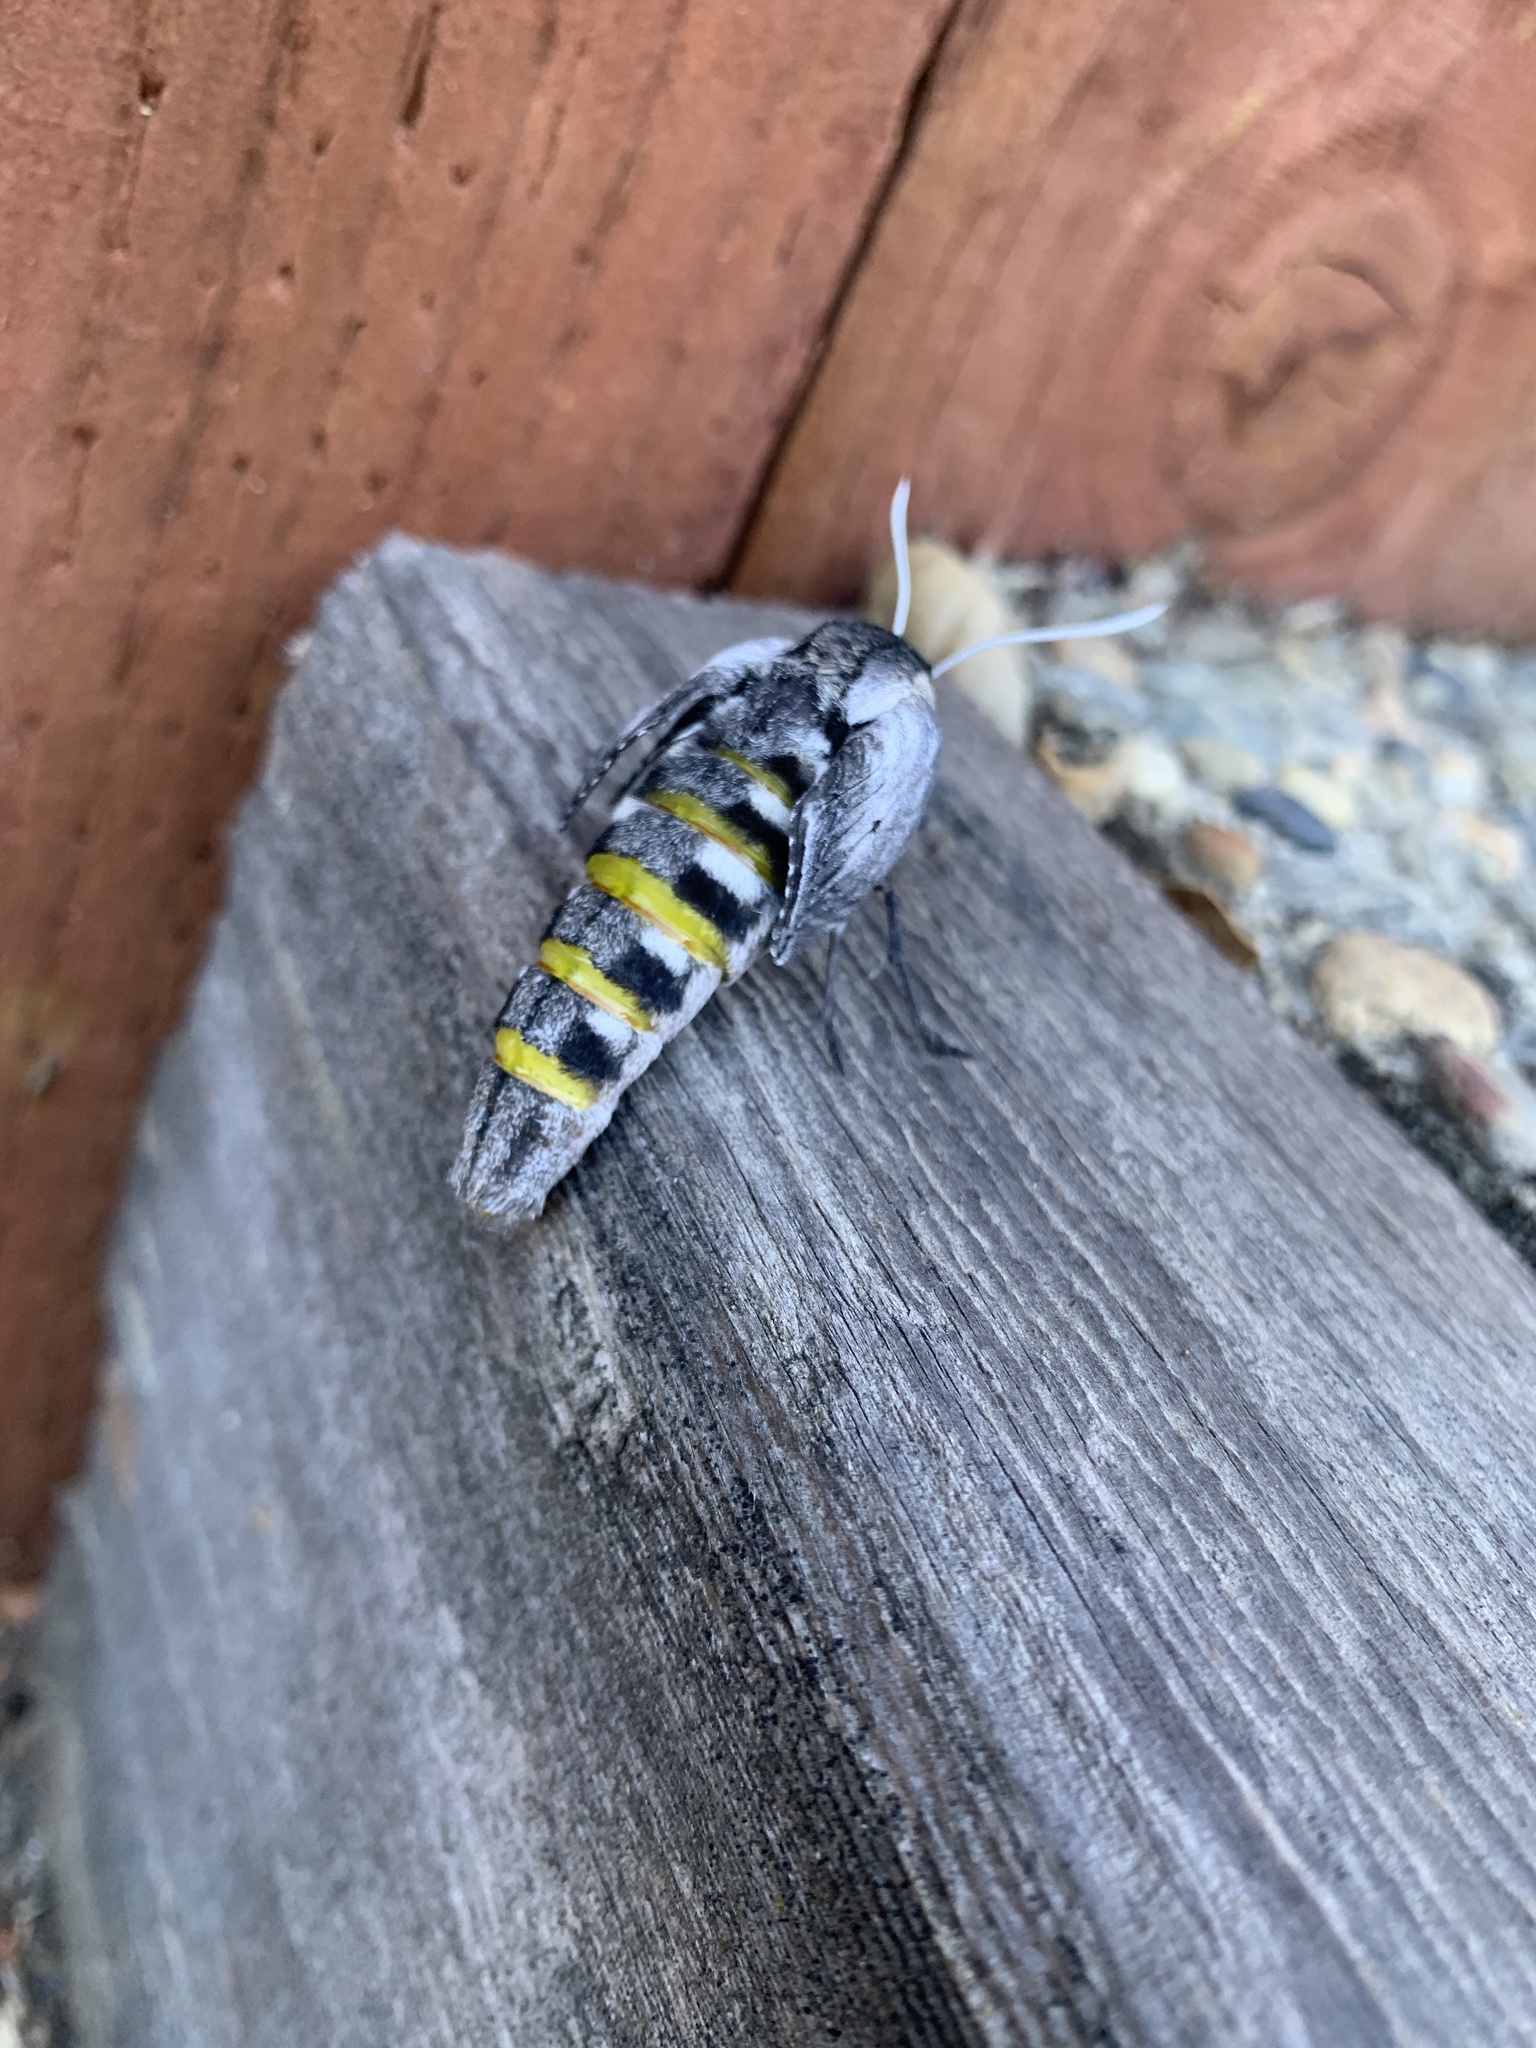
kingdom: Animalia
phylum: Arthropoda
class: Insecta
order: Lepidoptera
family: Sphingidae
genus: Sphinx
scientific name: Sphinx perelegans
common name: Elegant sphinx
